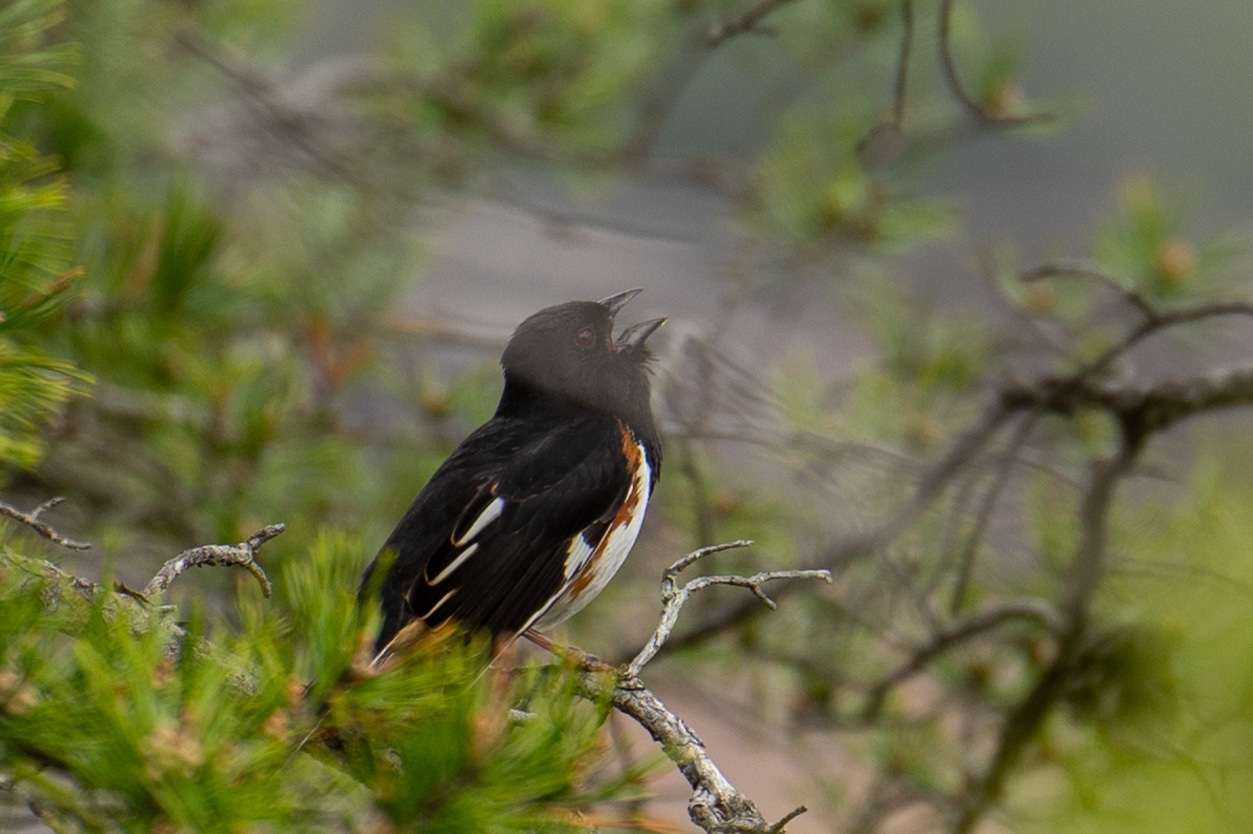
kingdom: Animalia
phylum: Chordata
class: Aves
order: Passeriformes
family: Passerellidae
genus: Pipilo
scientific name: Pipilo erythrophthalmus
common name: Eastern towhee
